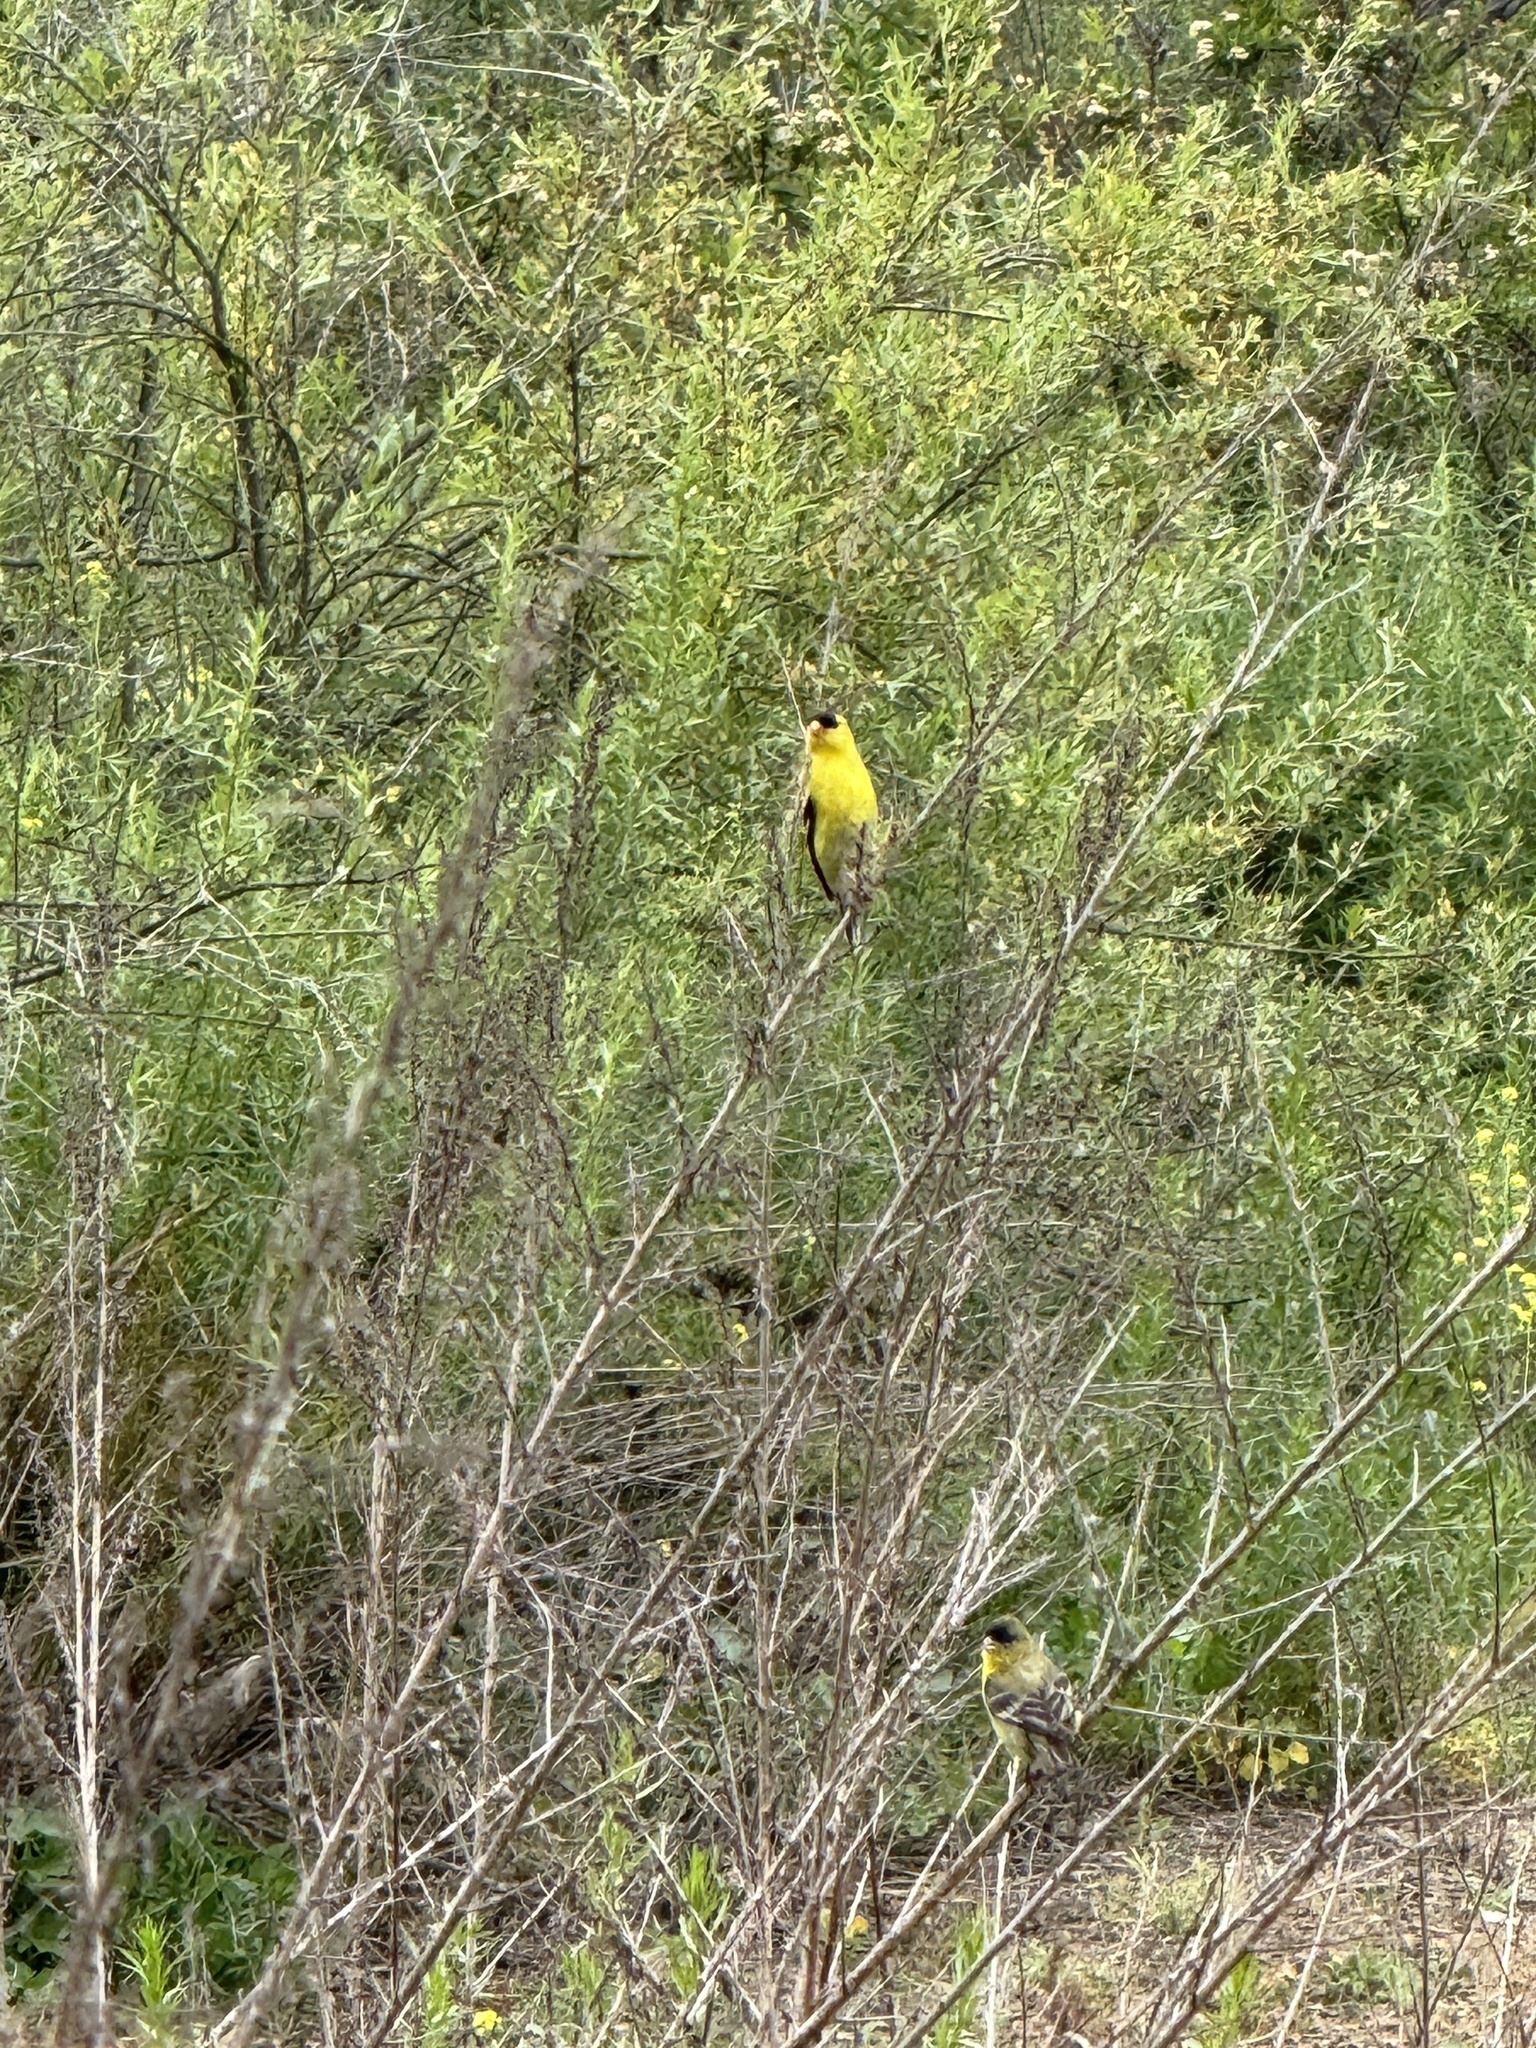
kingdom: Animalia
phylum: Chordata
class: Aves
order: Passeriformes
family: Fringillidae
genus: Spinus
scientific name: Spinus tristis
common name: American goldfinch
